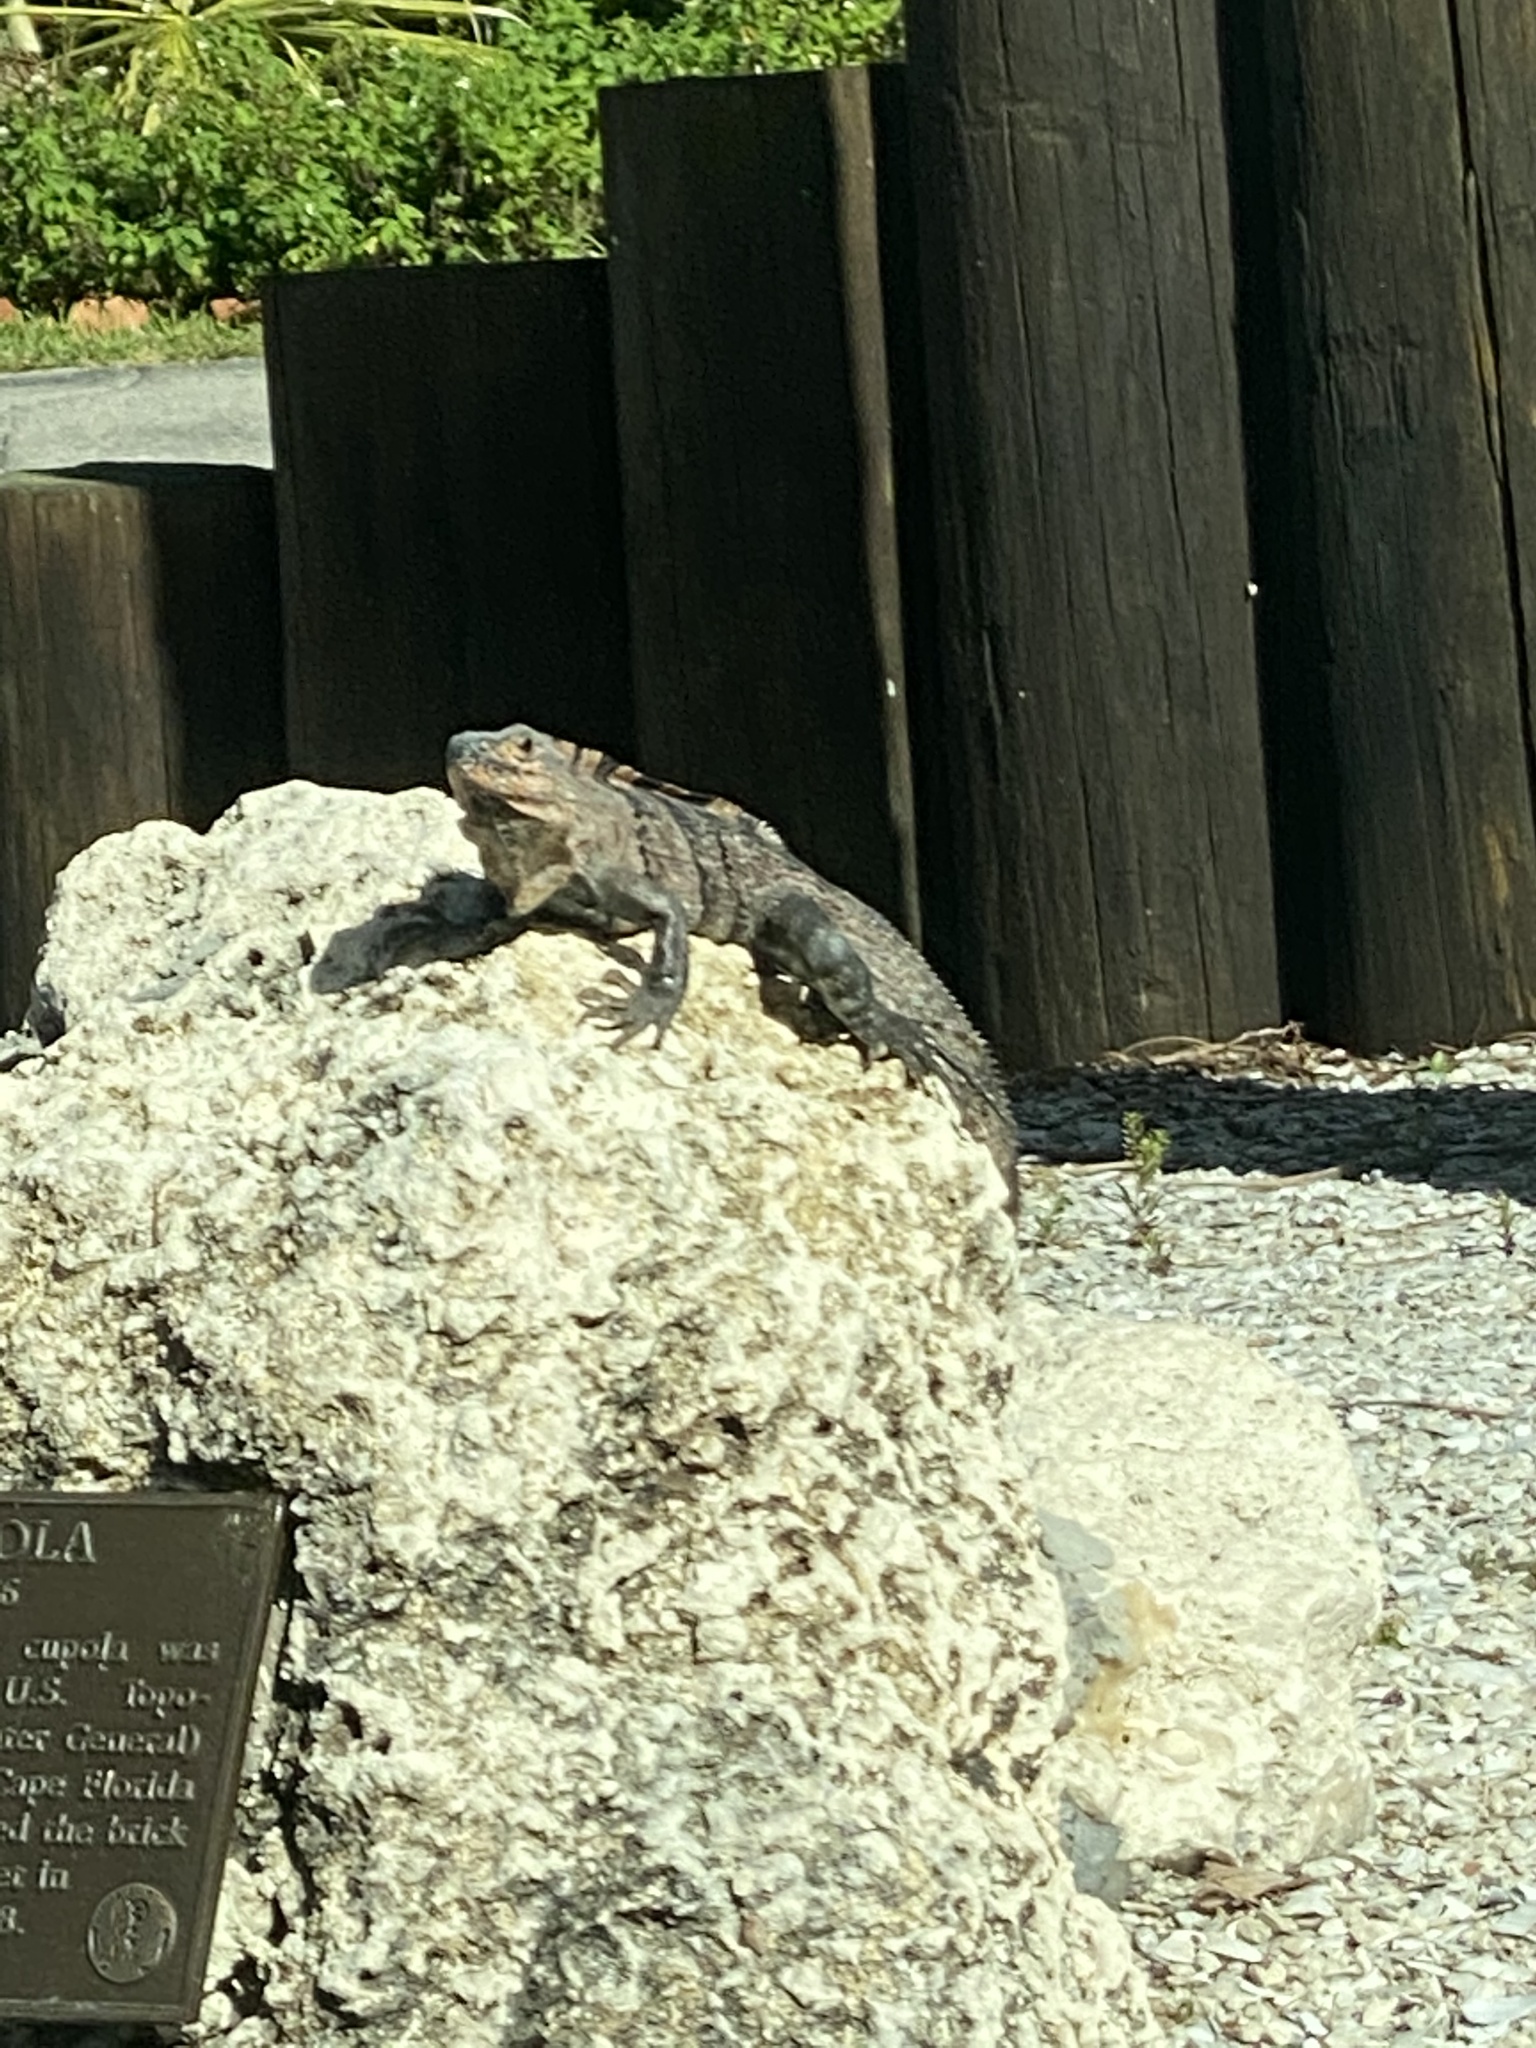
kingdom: Animalia
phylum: Chordata
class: Squamata
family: Iguanidae
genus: Ctenosaura
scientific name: Ctenosaura similis
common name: Black spiny-tailed iguana
